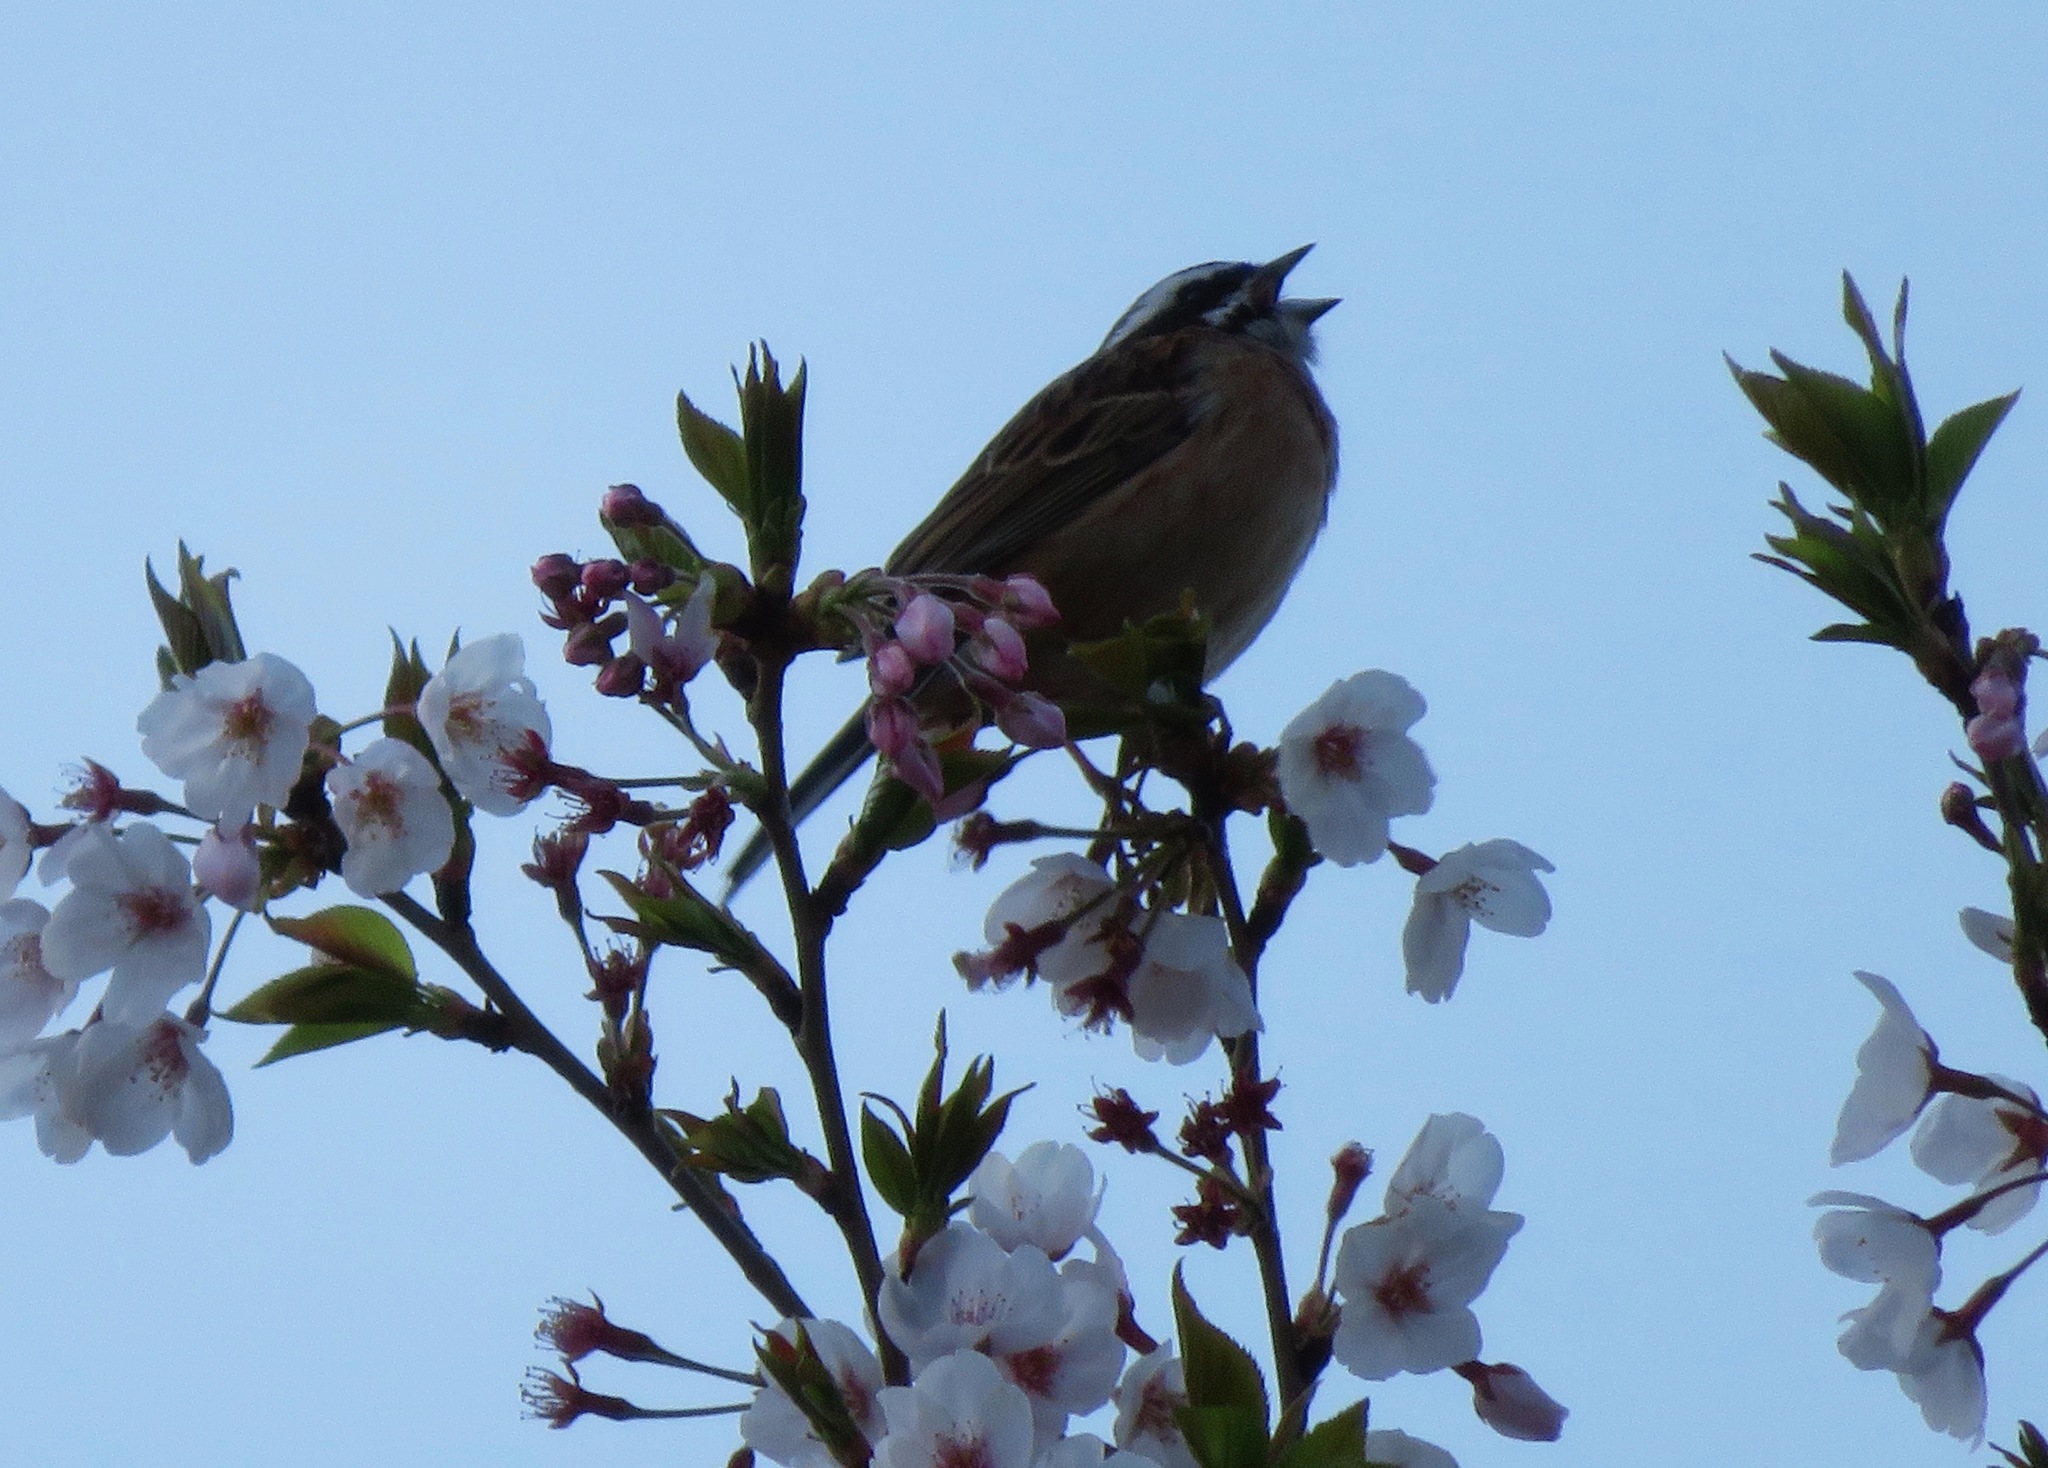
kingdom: Animalia
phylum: Chordata
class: Aves
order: Passeriformes
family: Emberizidae
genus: Emberiza
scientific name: Emberiza cioides
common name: Meadow bunting
